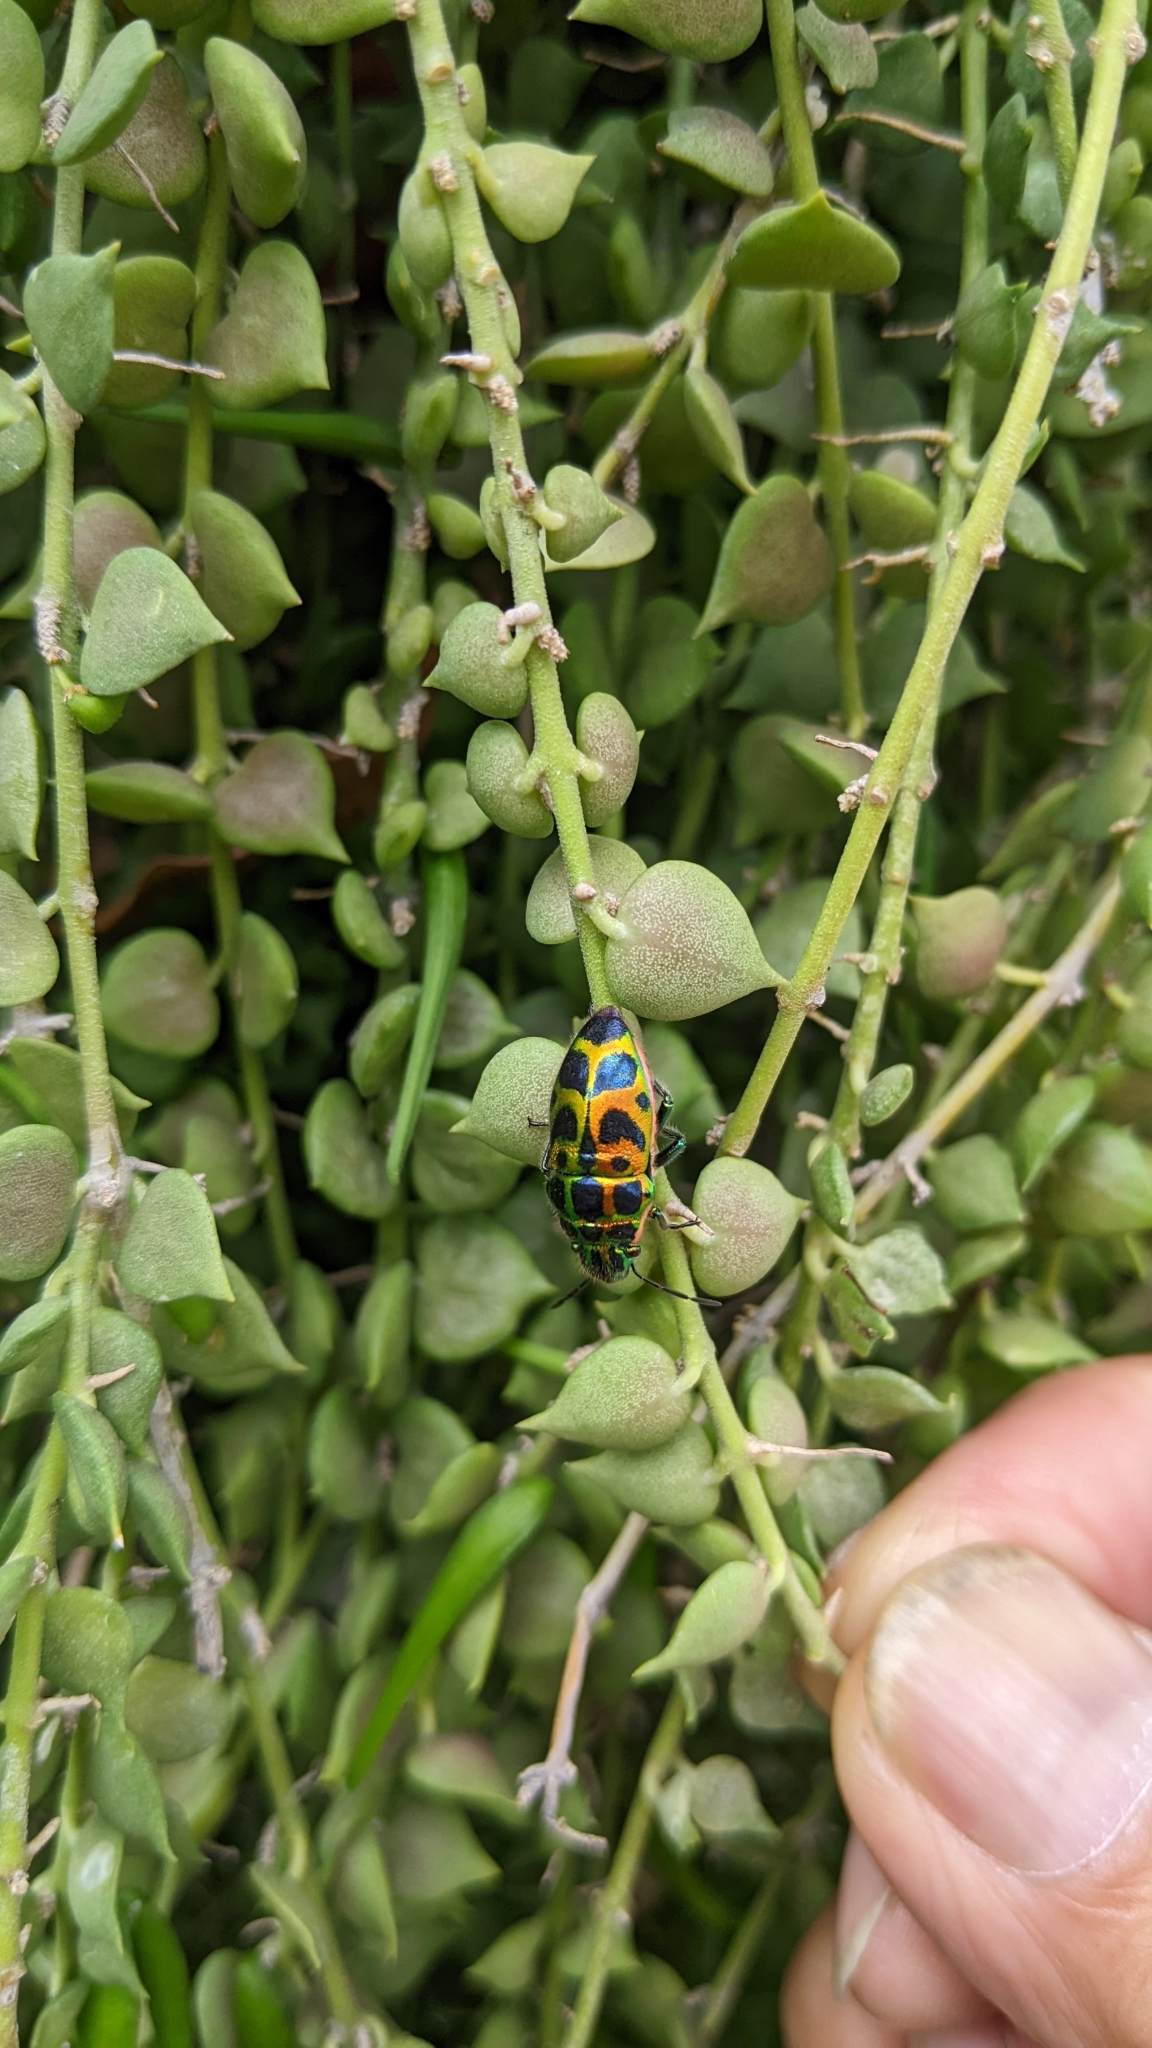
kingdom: Animalia
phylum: Arthropoda
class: Insecta
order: Hemiptera
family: Scutelleridae
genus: Brachyaulax
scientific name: Brachyaulax cyaneovitta
